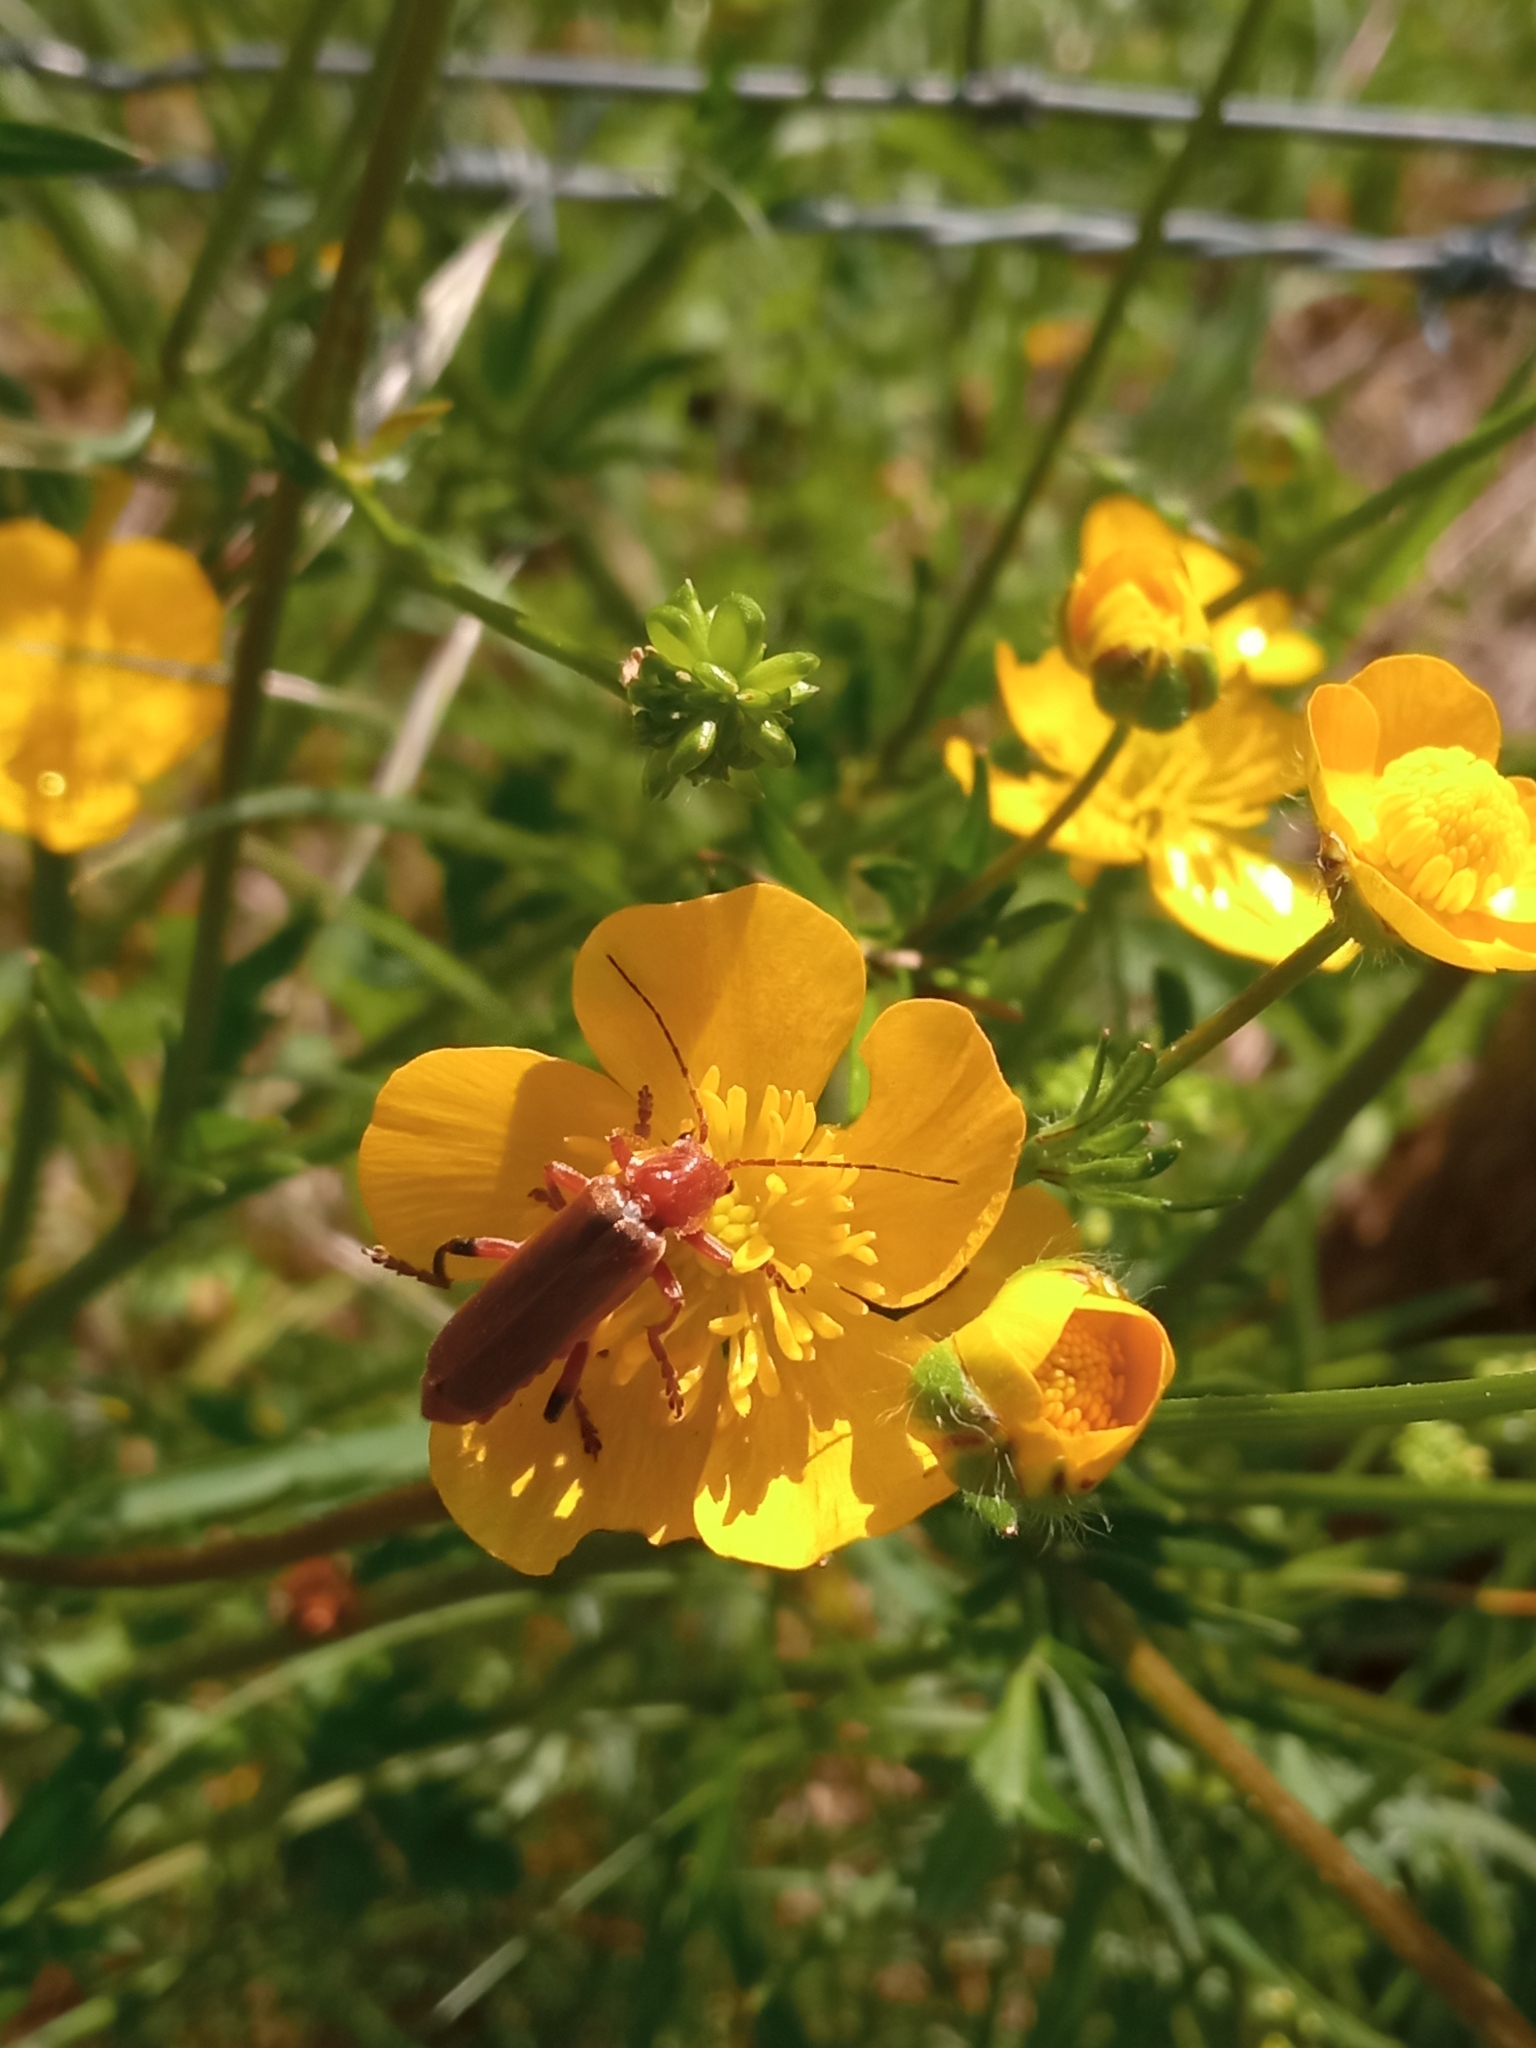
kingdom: Animalia
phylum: Arthropoda
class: Insecta
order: Coleoptera
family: Cantharidae
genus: Cantharis
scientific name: Cantharis livida
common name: Livid soldier beetle
